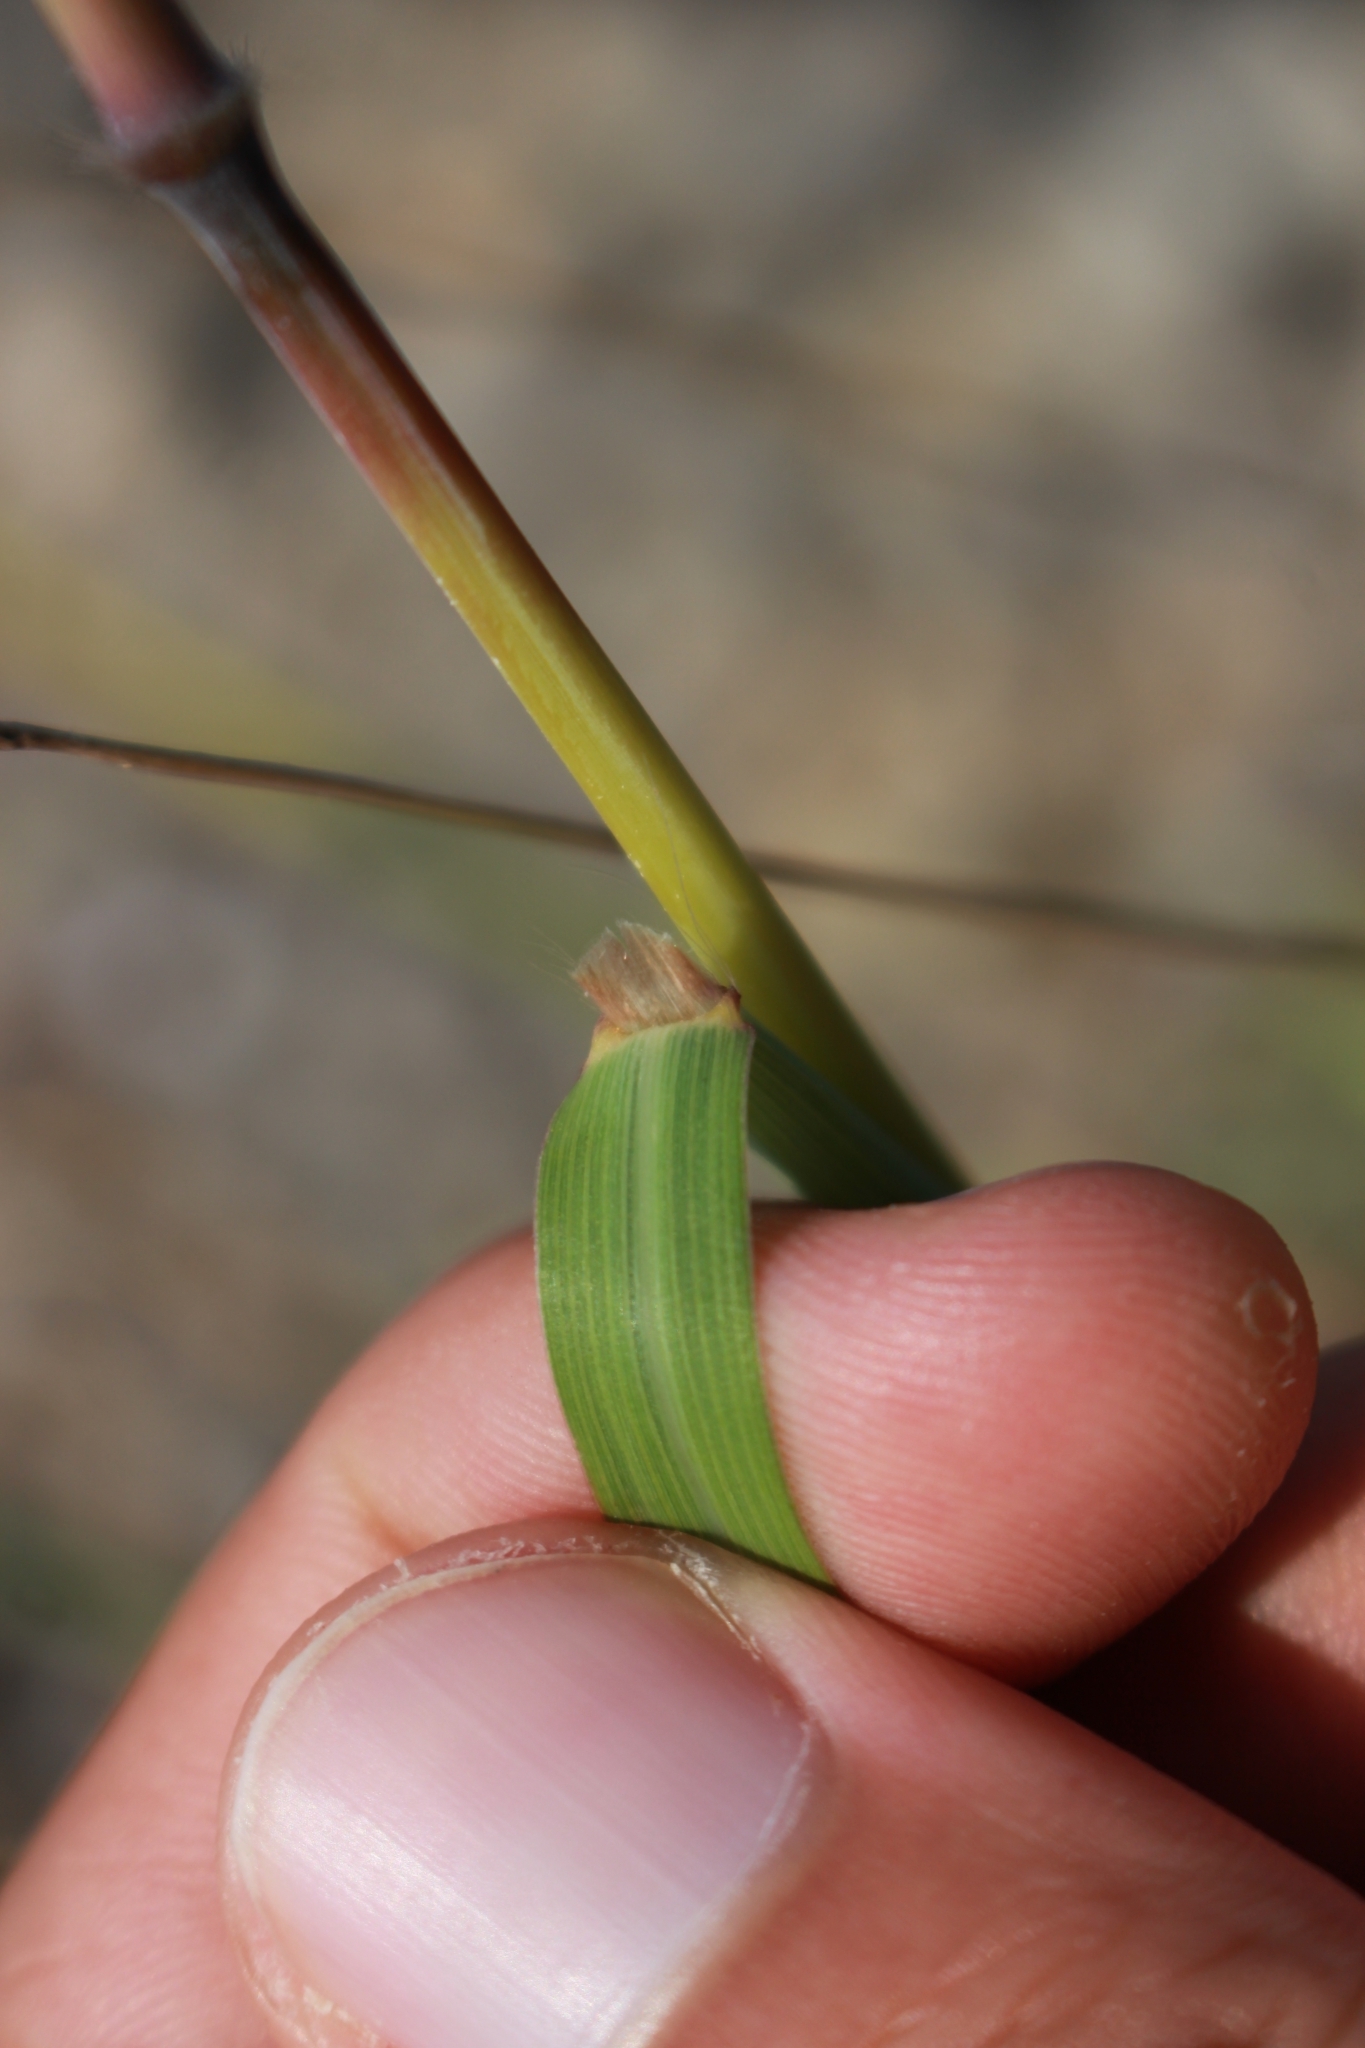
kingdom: Plantae
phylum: Tracheophyta
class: Liliopsida
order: Poales
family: Poaceae
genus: Bothriochloa
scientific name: Bothriochloa barbinodis
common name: Cane bluestem
